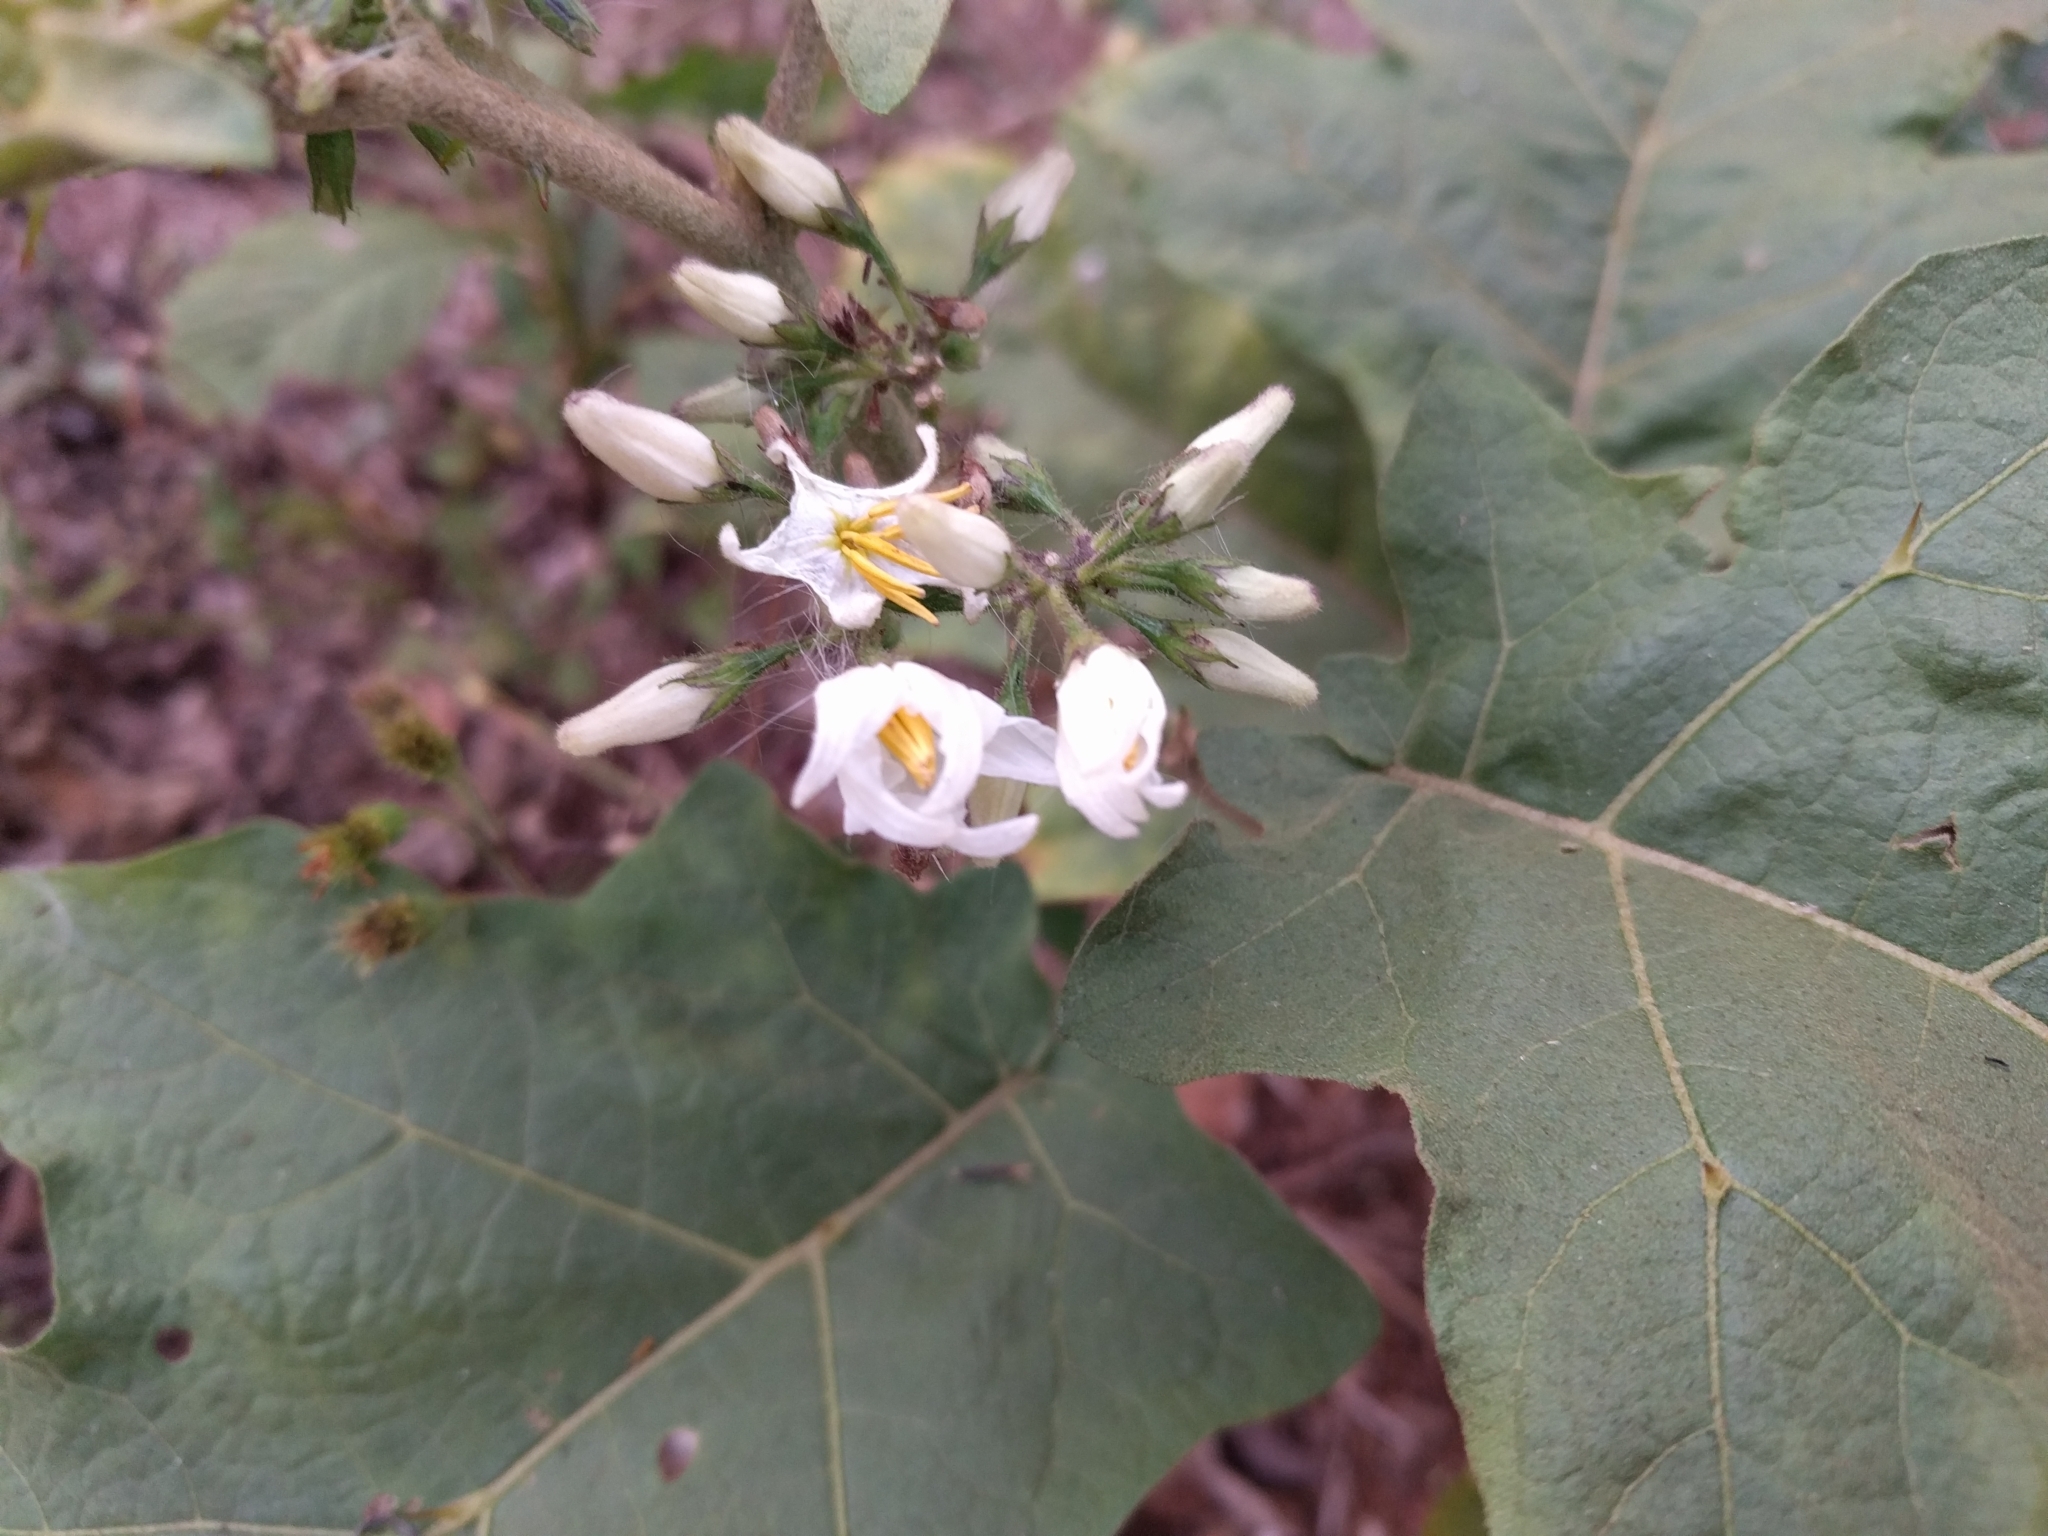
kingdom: Plantae
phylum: Tracheophyta
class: Magnoliopsida
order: Solanales
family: Solanaceae
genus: Solanum
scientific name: Solanum torvum
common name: Turkey berry
